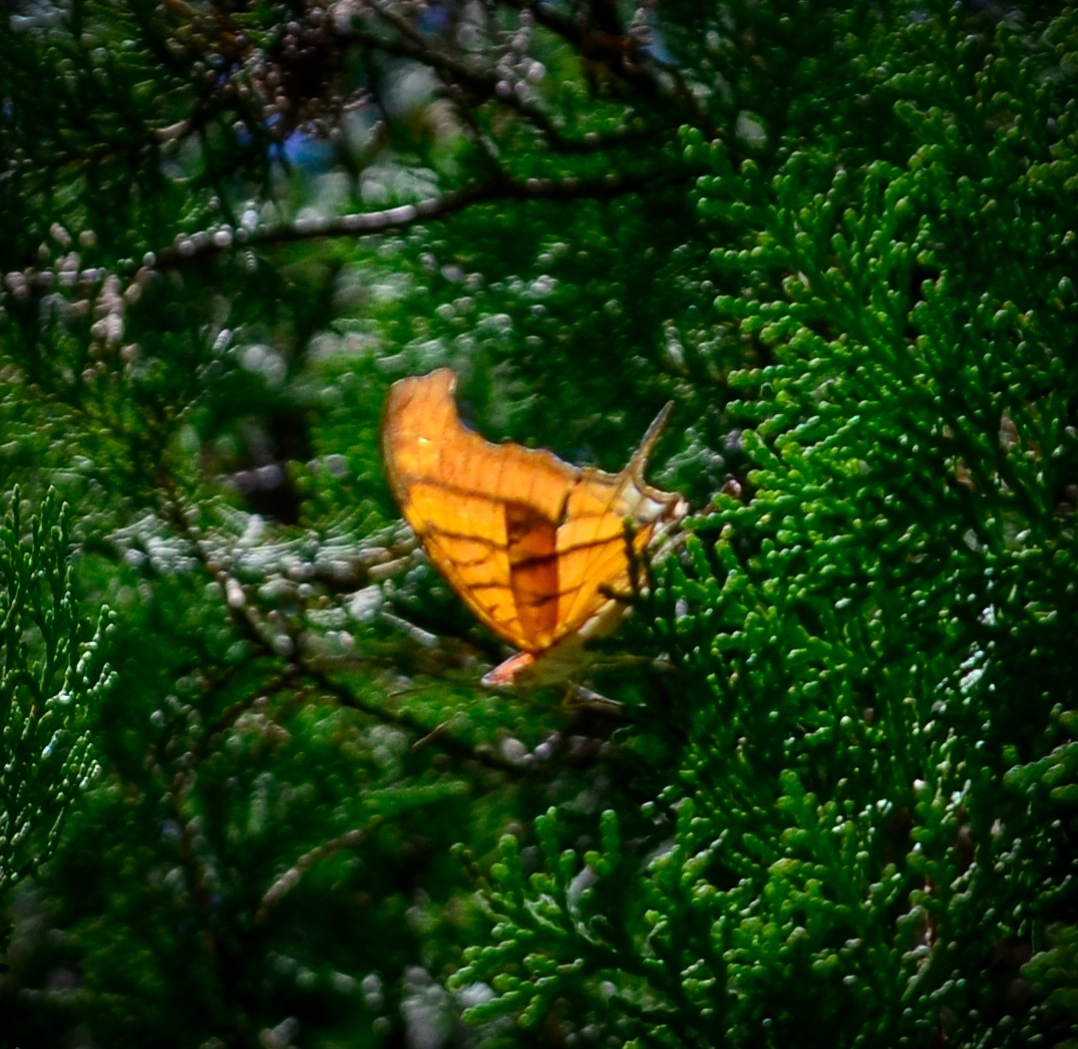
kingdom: Animalia
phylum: Arthropoda
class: Insecta
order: Lepidoptera
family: Nymphalidae
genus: Marpesia
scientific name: Marpesia petreus
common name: Red dagger wing
